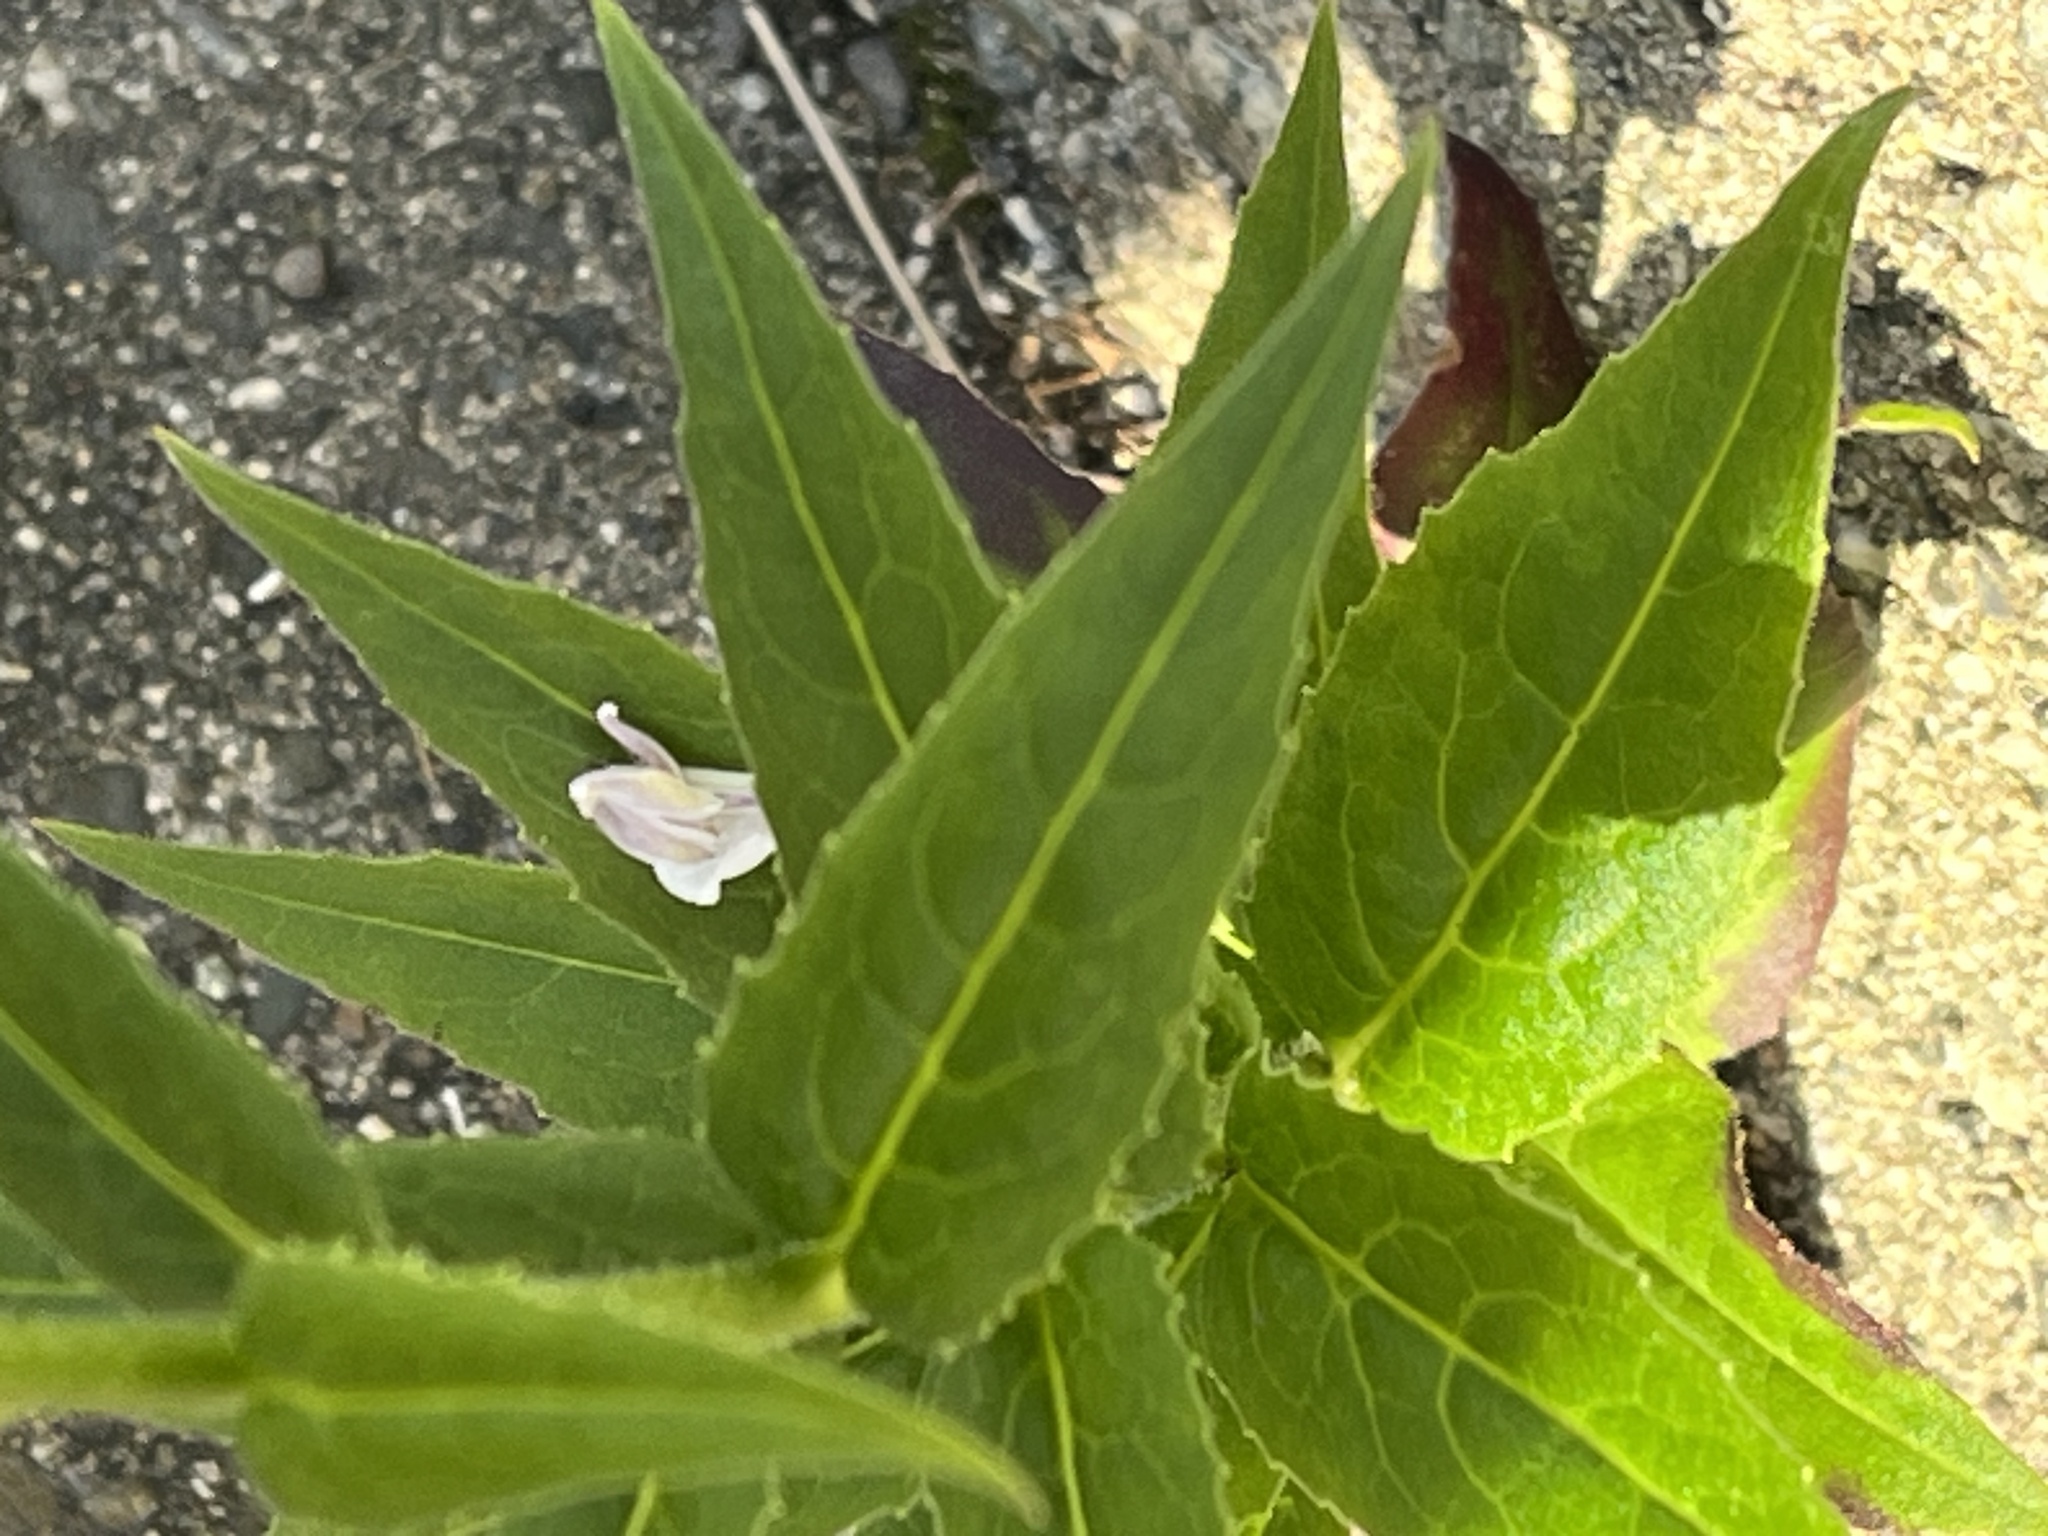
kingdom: Plantae
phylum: Tracheophyta
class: Magnoliopsida
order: Brassicales
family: Brassicaceae
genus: Hesperis
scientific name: Hesperis matronalis
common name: Dame's-violet
